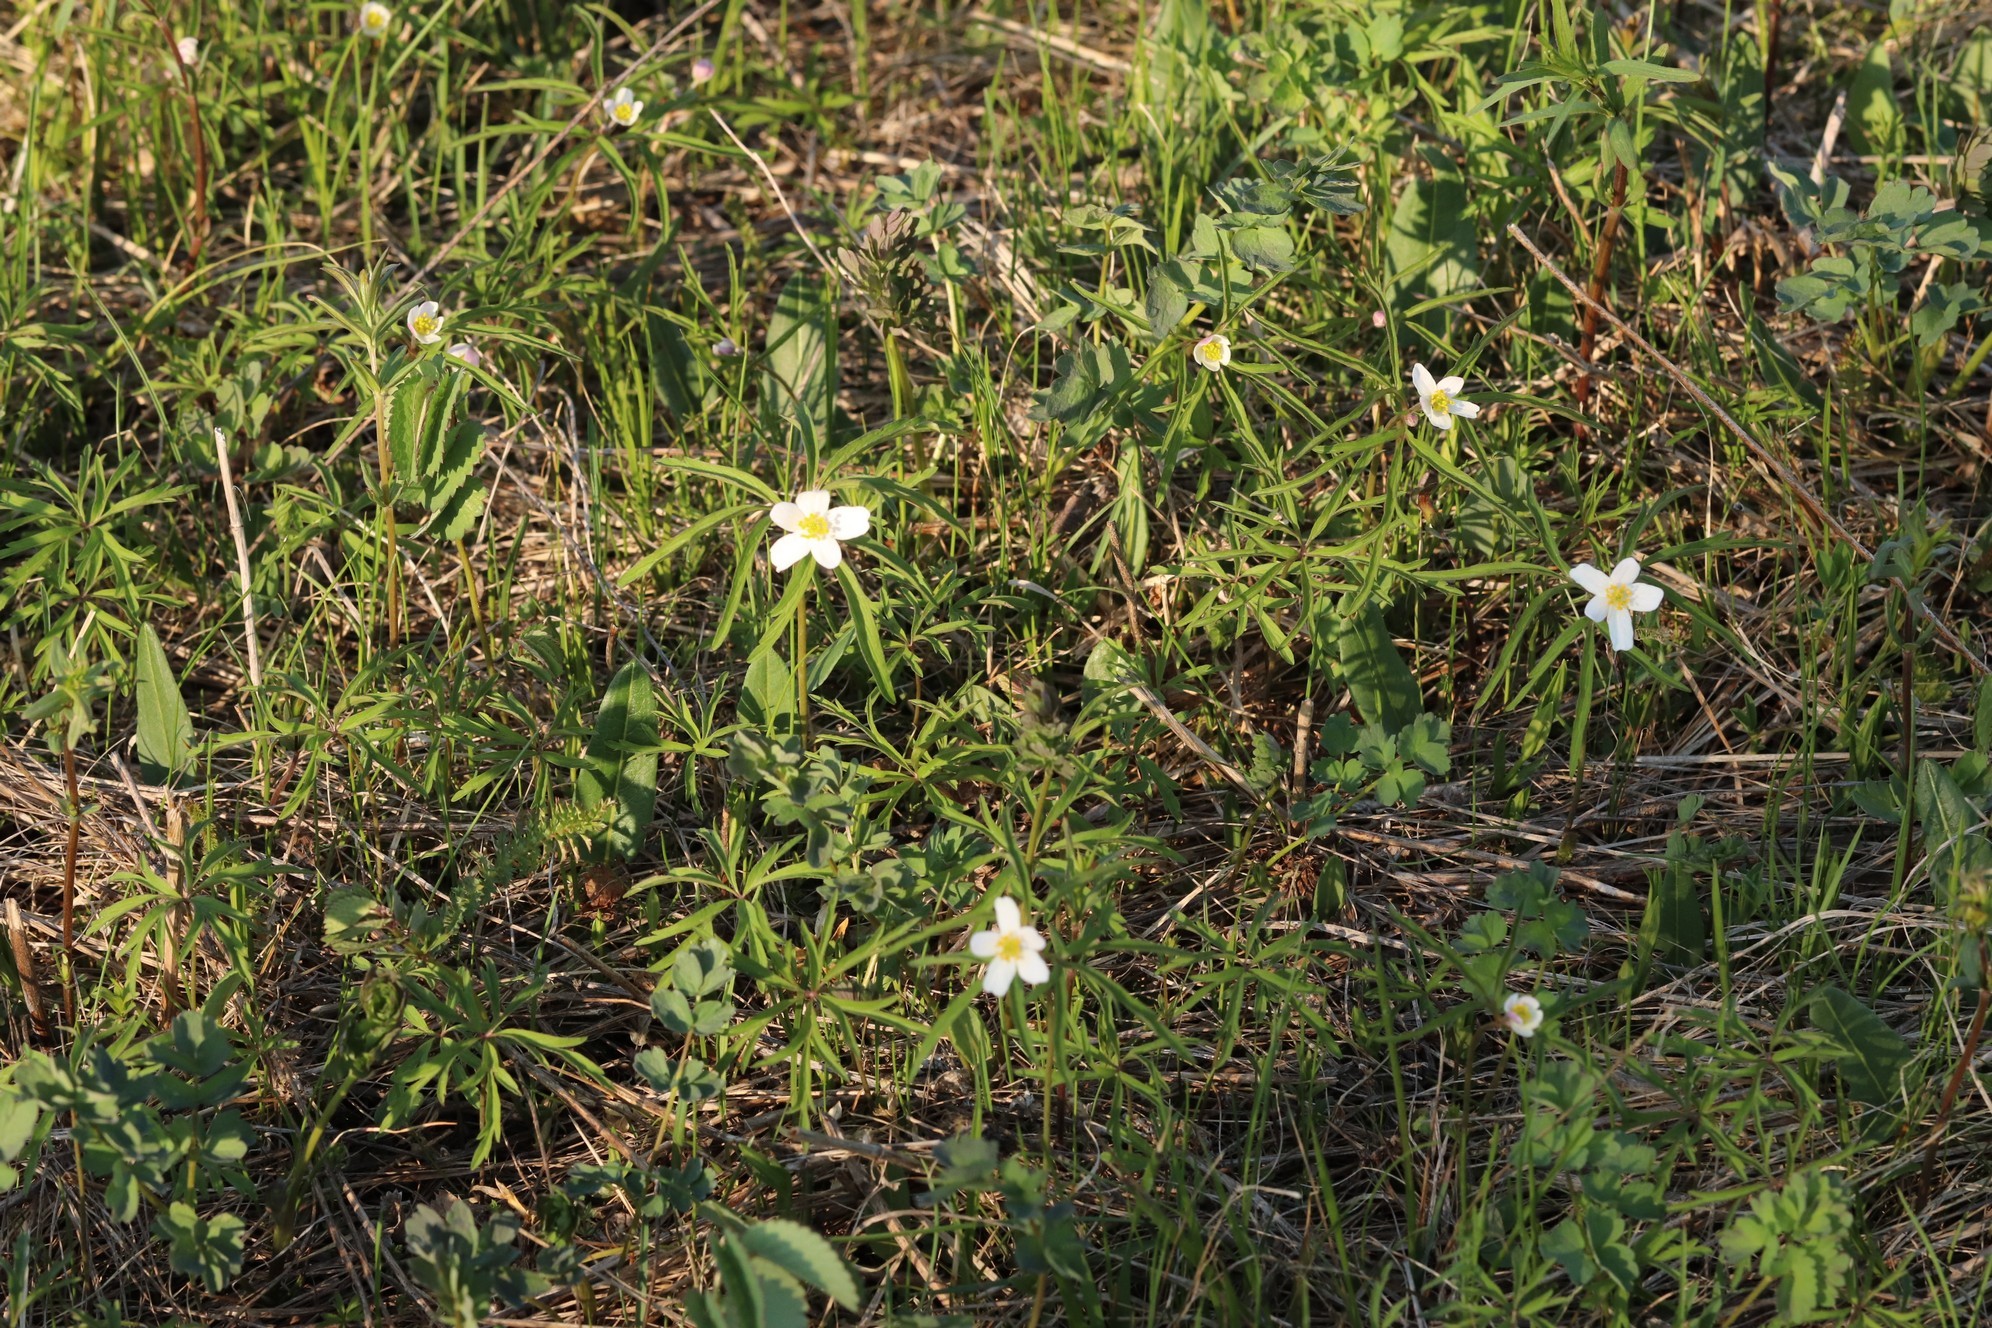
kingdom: Plantae
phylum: Tracheophyta
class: Magnoliopsida
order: Ranunculales
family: Ranunculaceae
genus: Anemone
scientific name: Anemone caerulea
